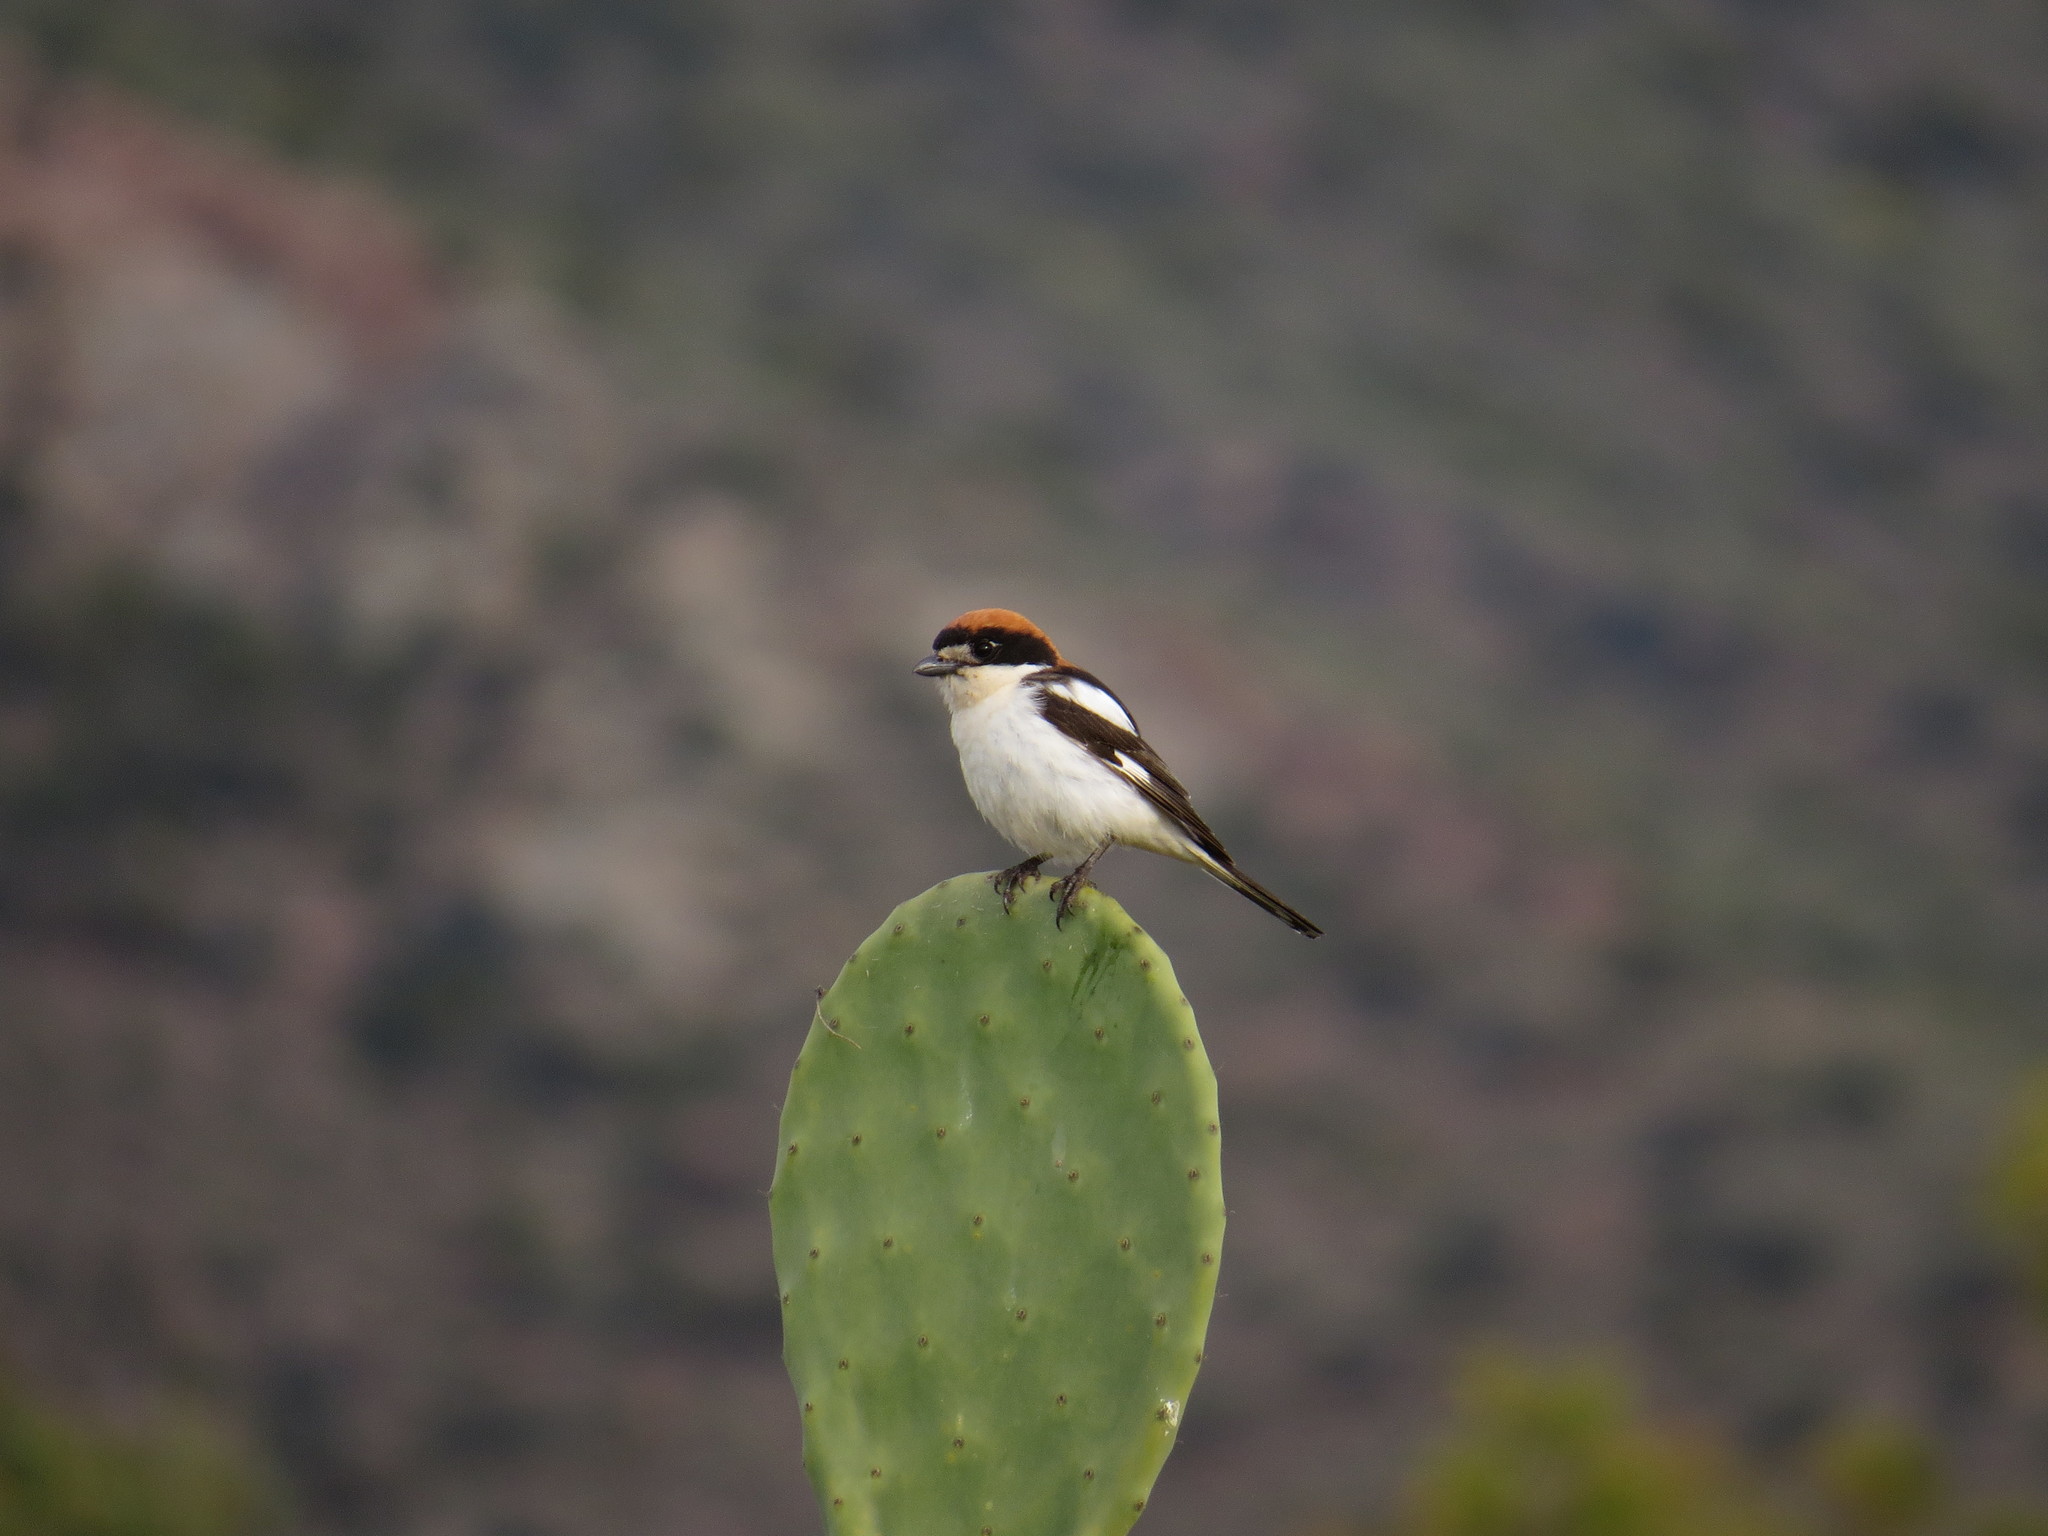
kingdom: Animalia
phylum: Chordata
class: Aves
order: Passeriformes
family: Laniidae
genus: Lanius
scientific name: Lanius senator
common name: Woodchat shrike
